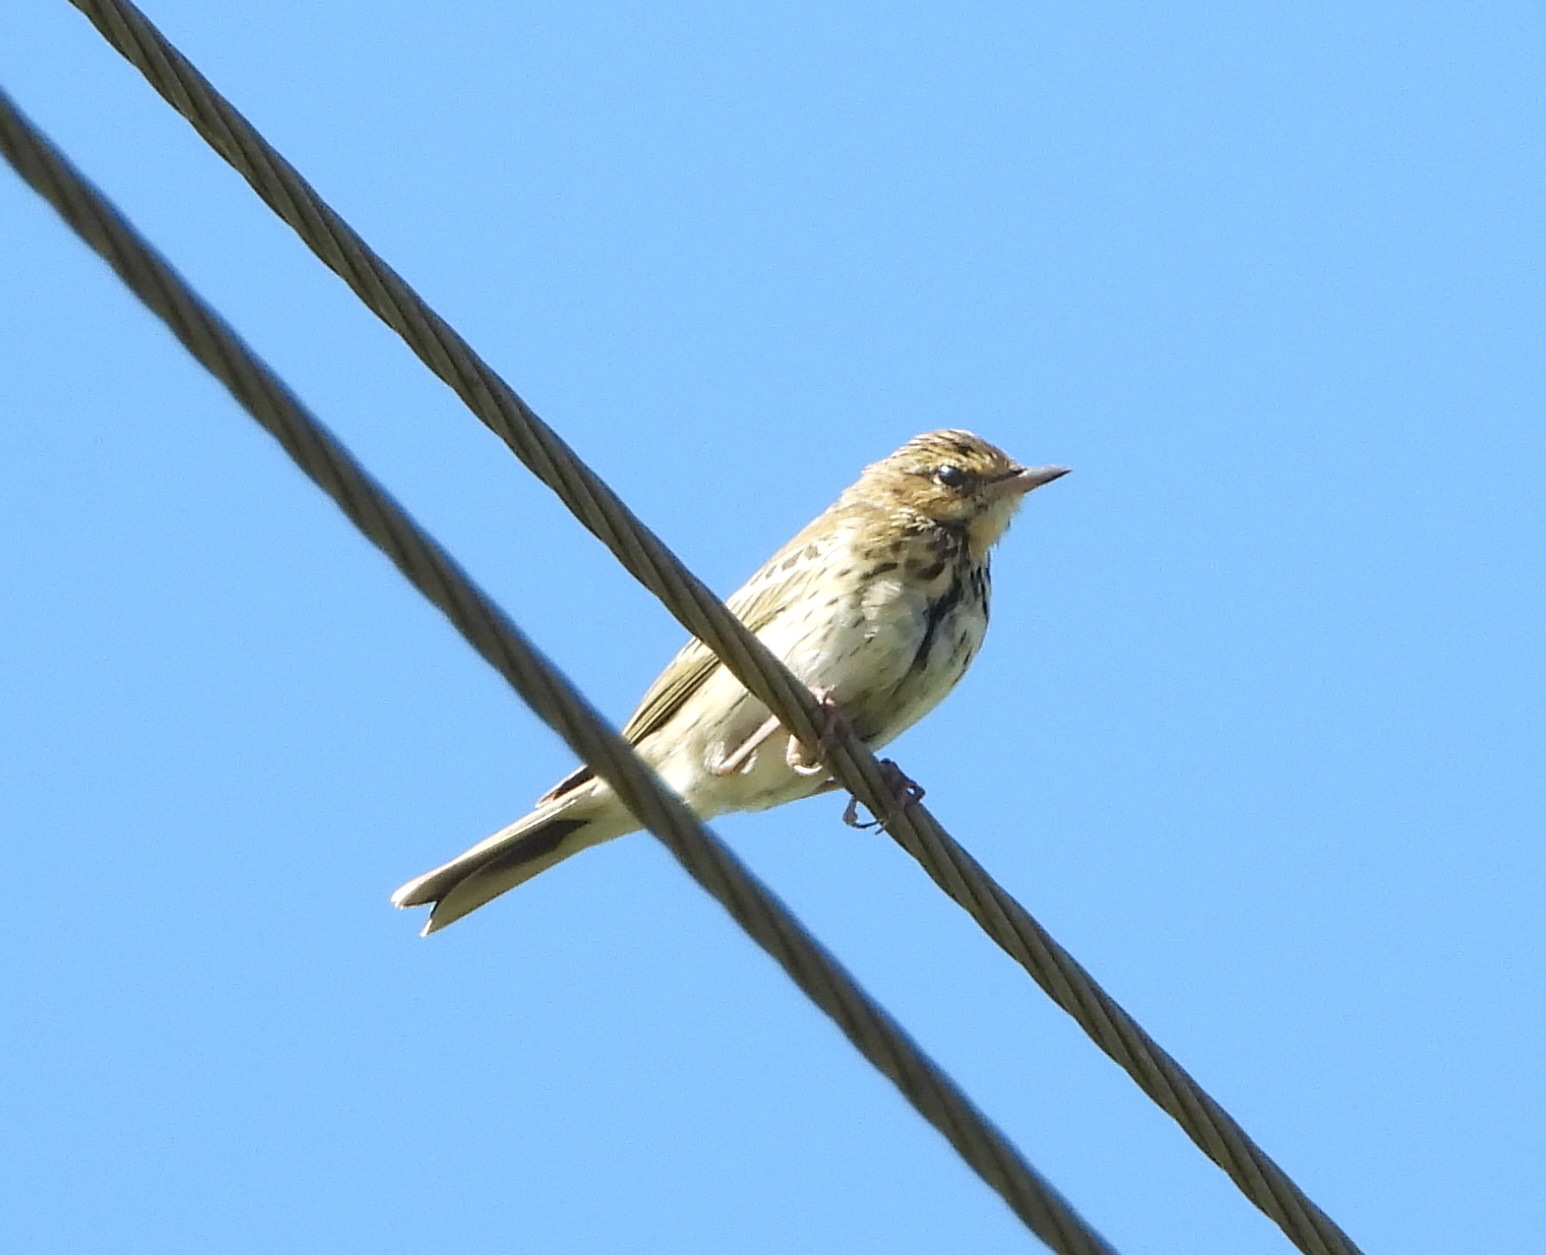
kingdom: Animalia
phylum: Chordata
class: Aves
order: Passeriformes
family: Motacillidae
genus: Anthus
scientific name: Anthus trivialis
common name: Tree pipit
